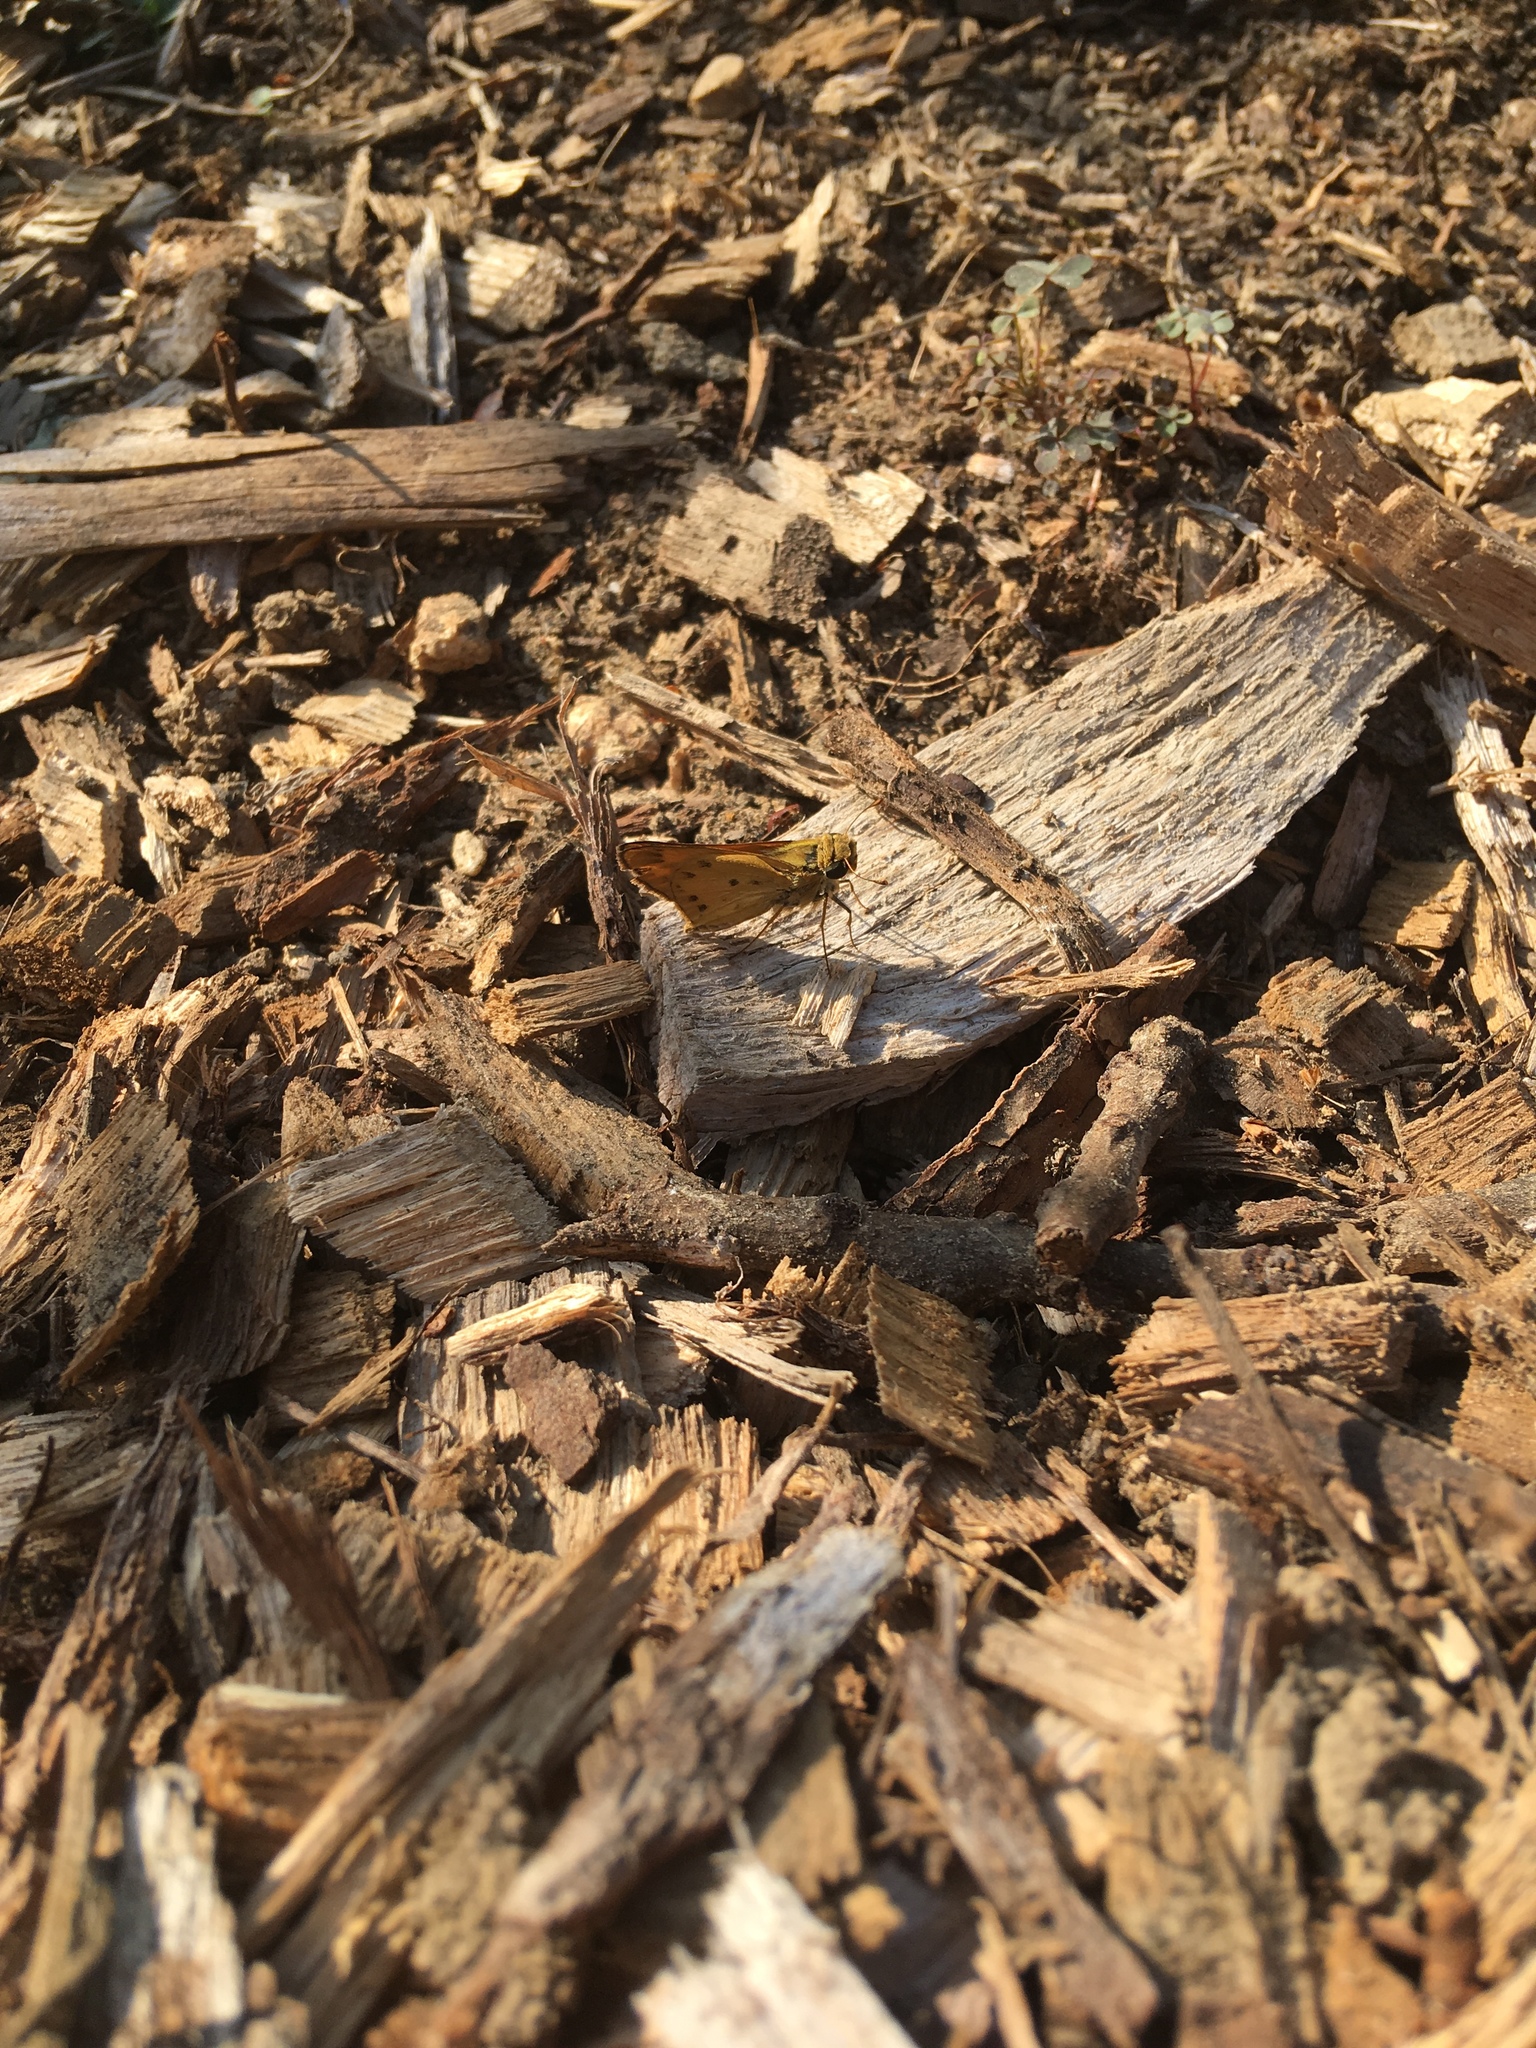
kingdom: Animalia
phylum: Arthropoda
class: Insecta
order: Lepidoptera
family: Hesperiidae
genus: Hylephila
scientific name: Hylephila phyleus
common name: Fiery skipper
